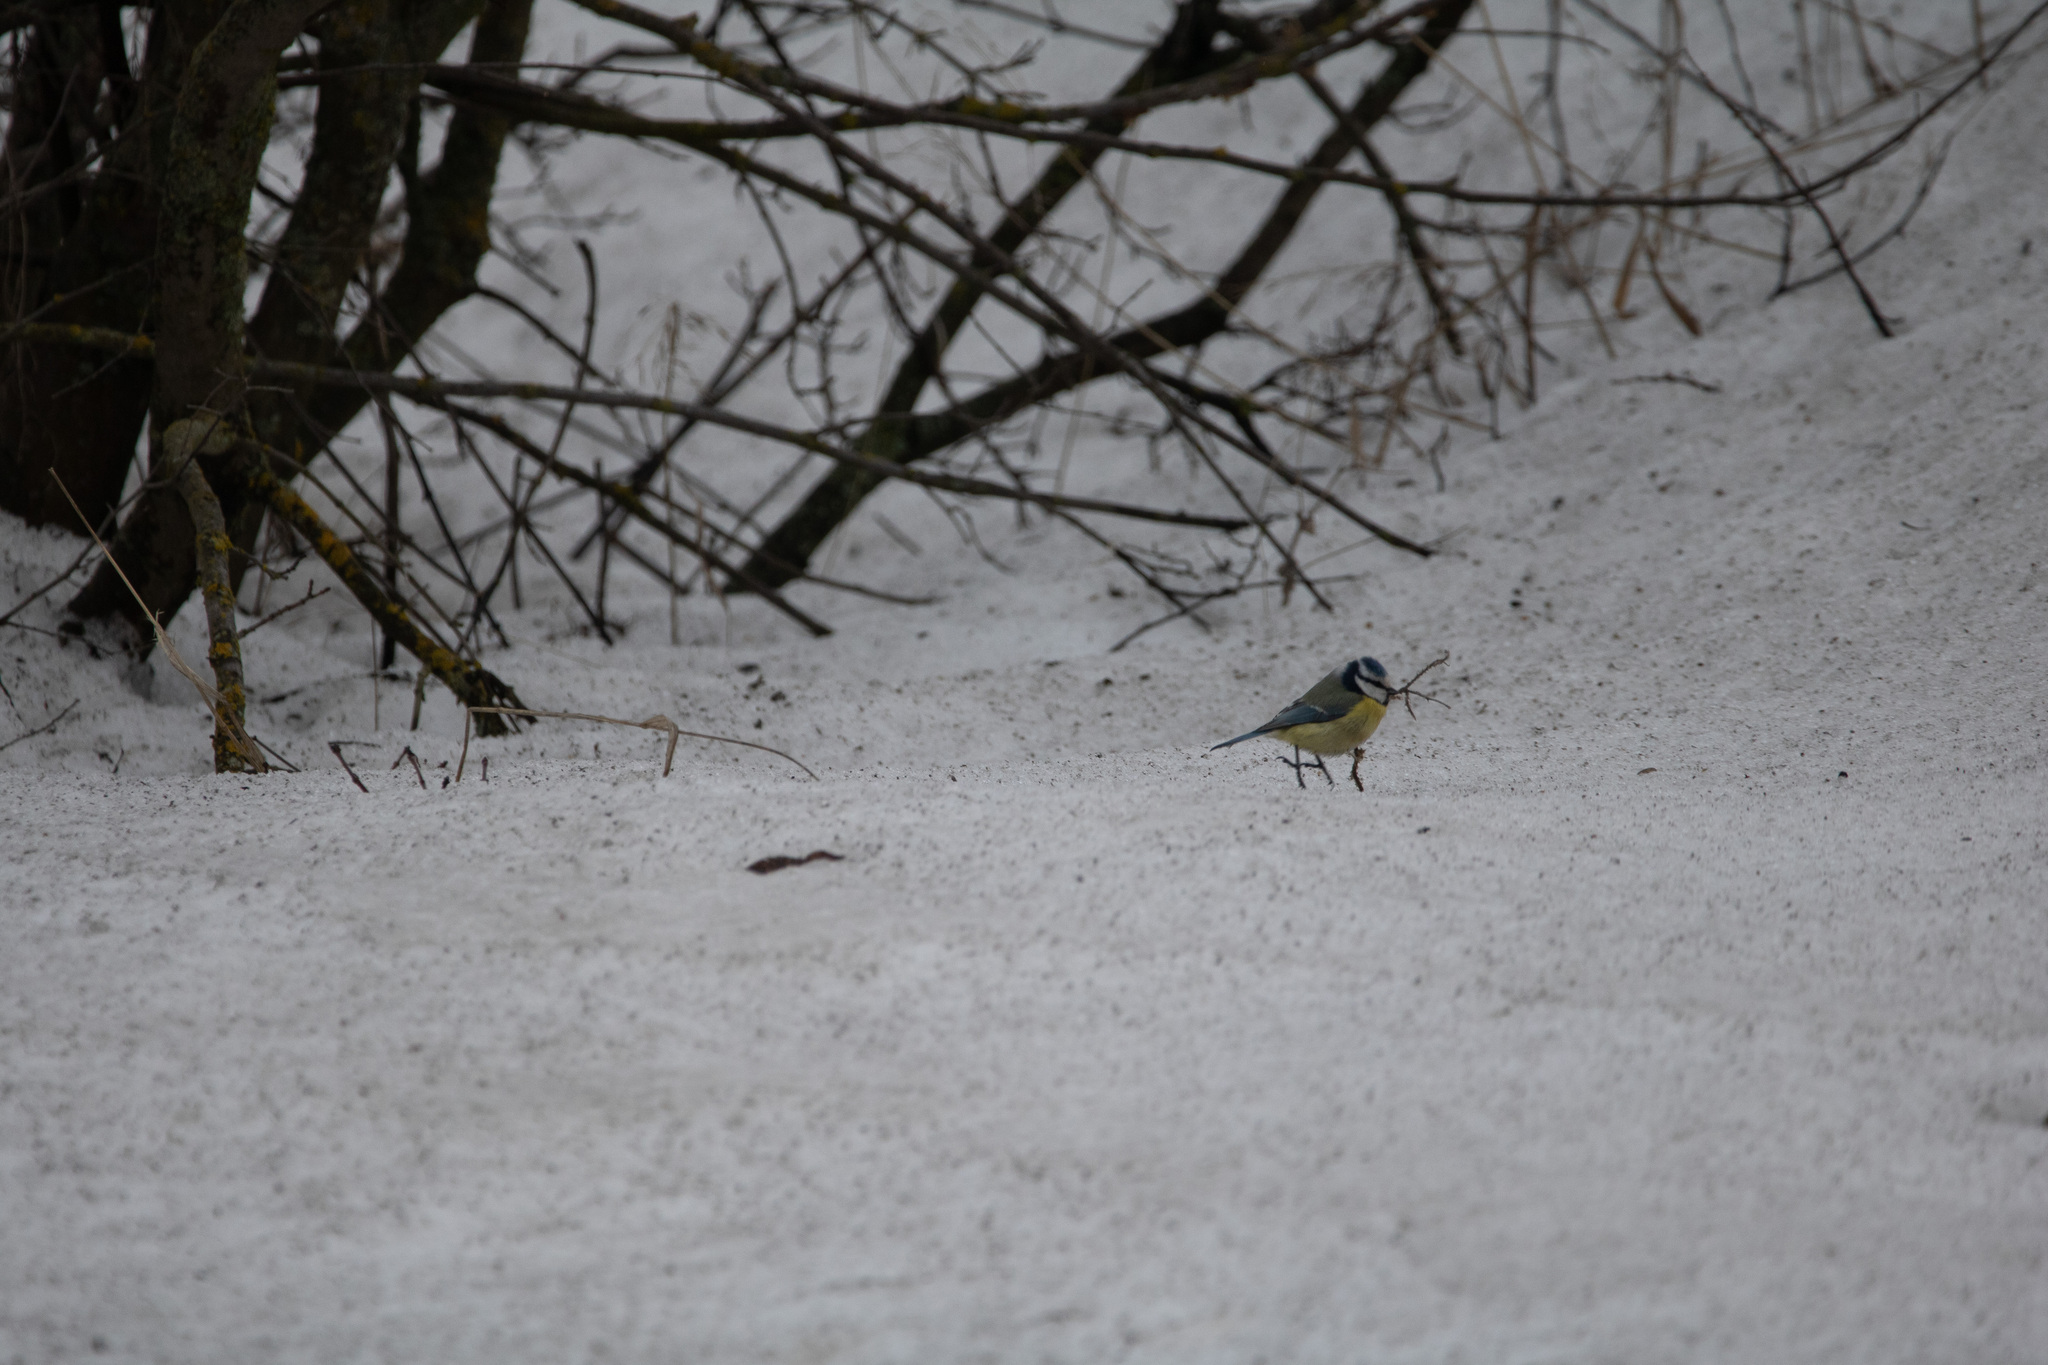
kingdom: Animalia
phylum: Chordata
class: Aves
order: Passeriformes
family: Paridae
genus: Cyanistes
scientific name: Cyanistes caeruleus
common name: Eurasian blue tit
